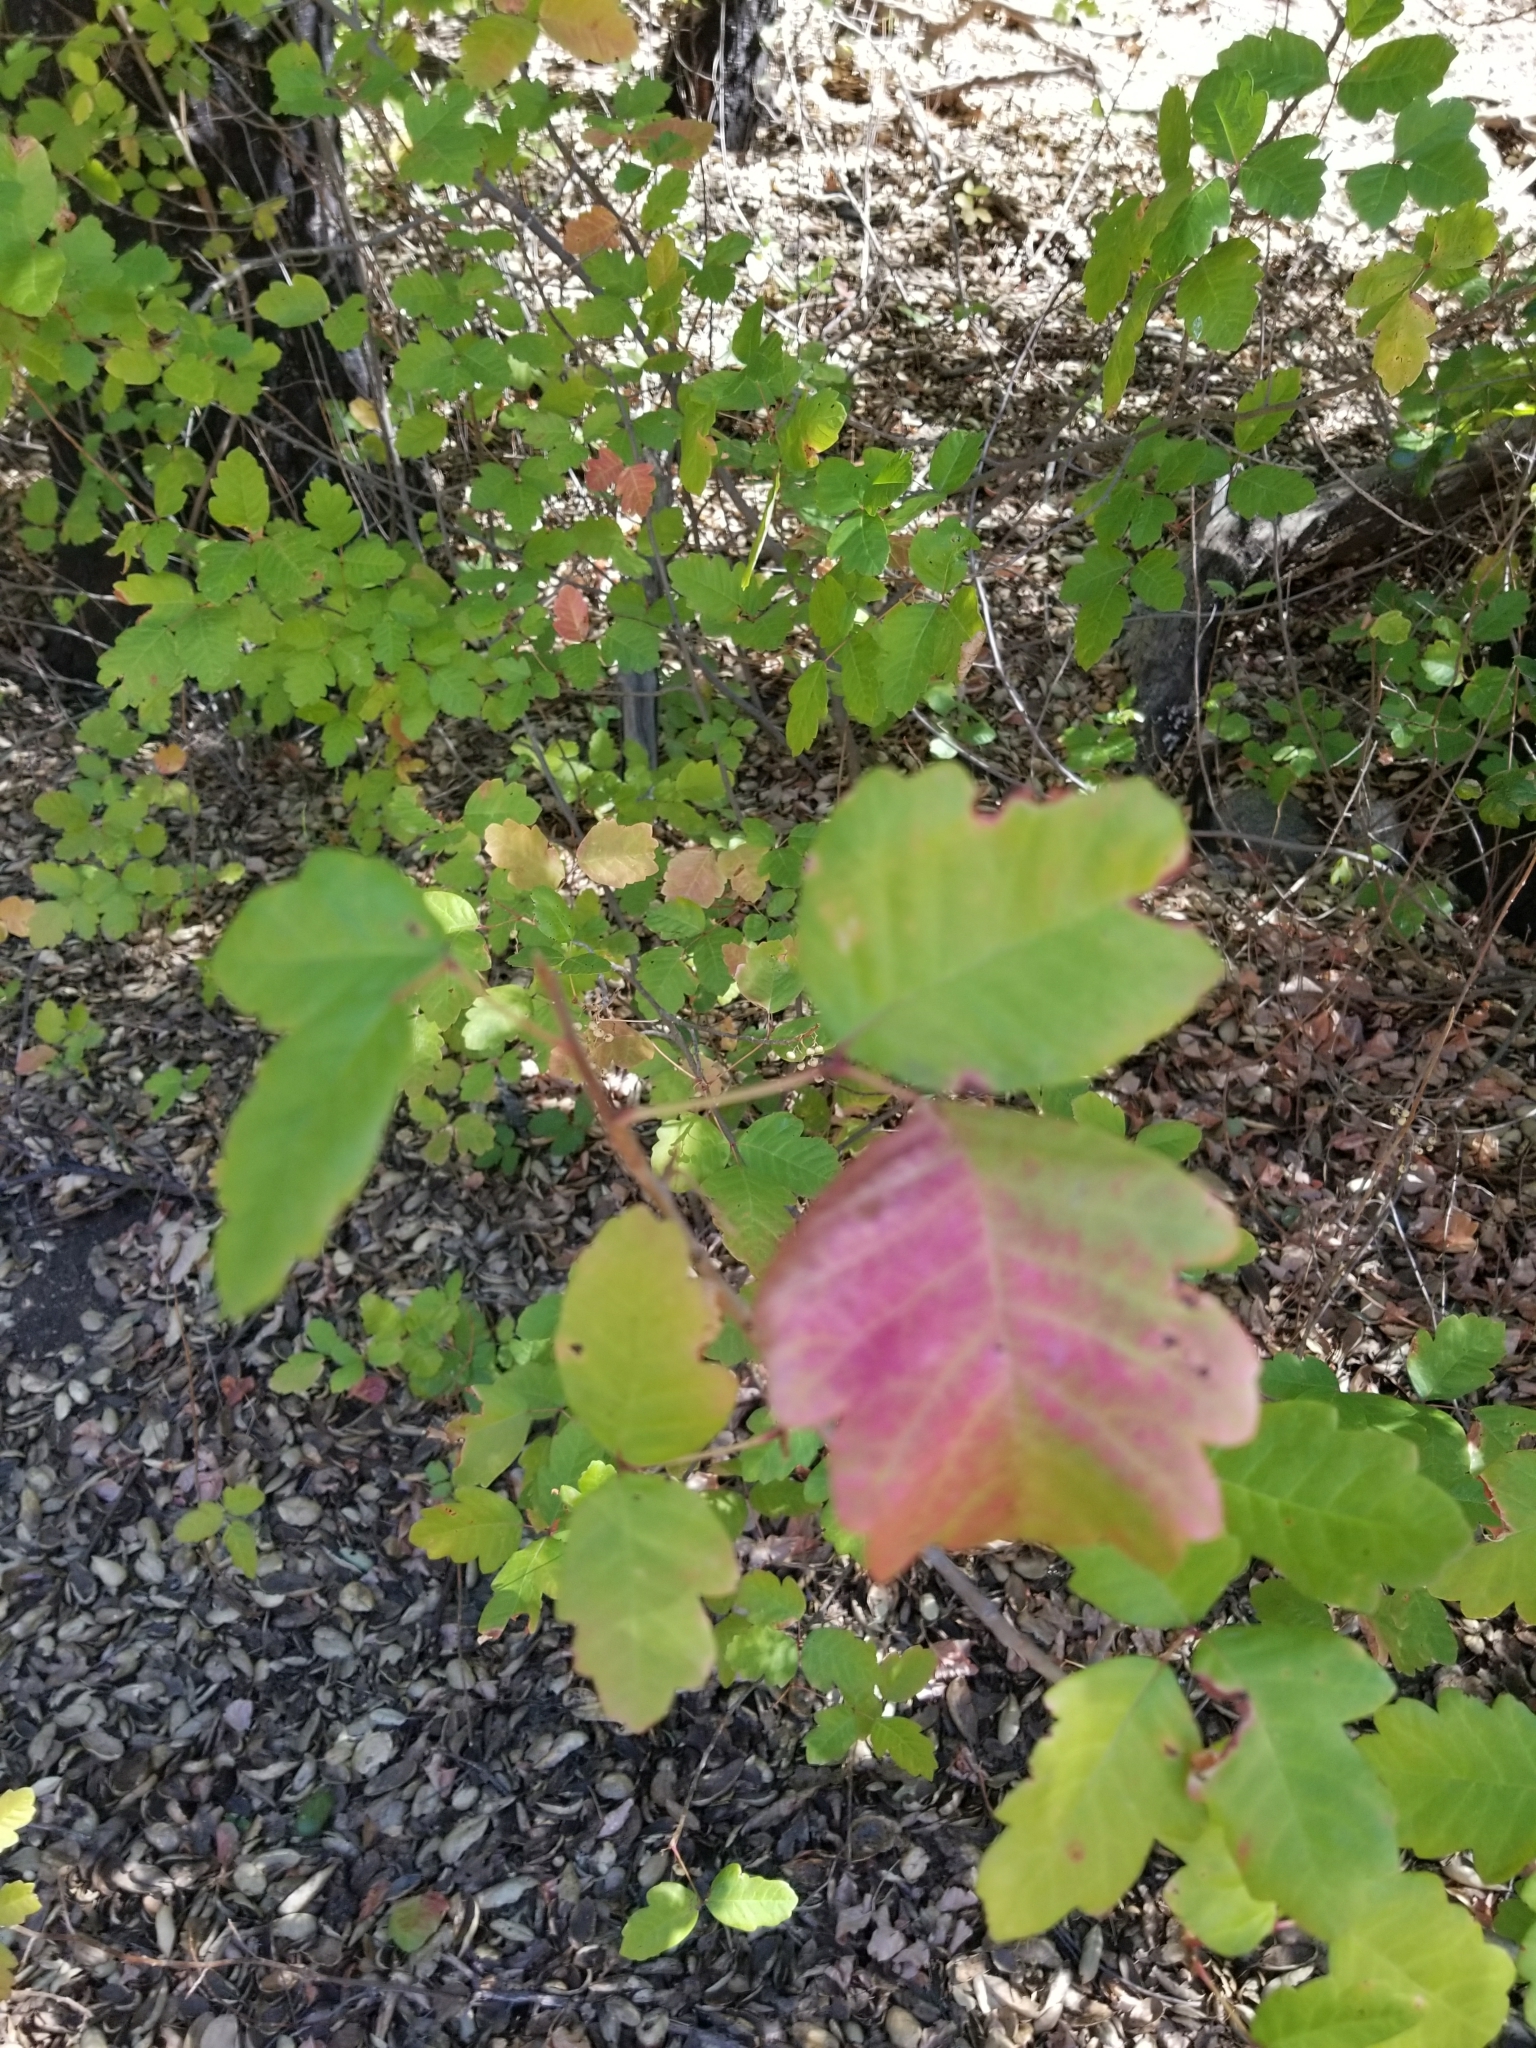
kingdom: Plantae
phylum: Tracheophyta
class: Magnoliopsida
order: Sapindales
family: Anacardiaceae
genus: Toxicodendron
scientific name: Toxicodendron diversilobum
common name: Pacific poison-oak
